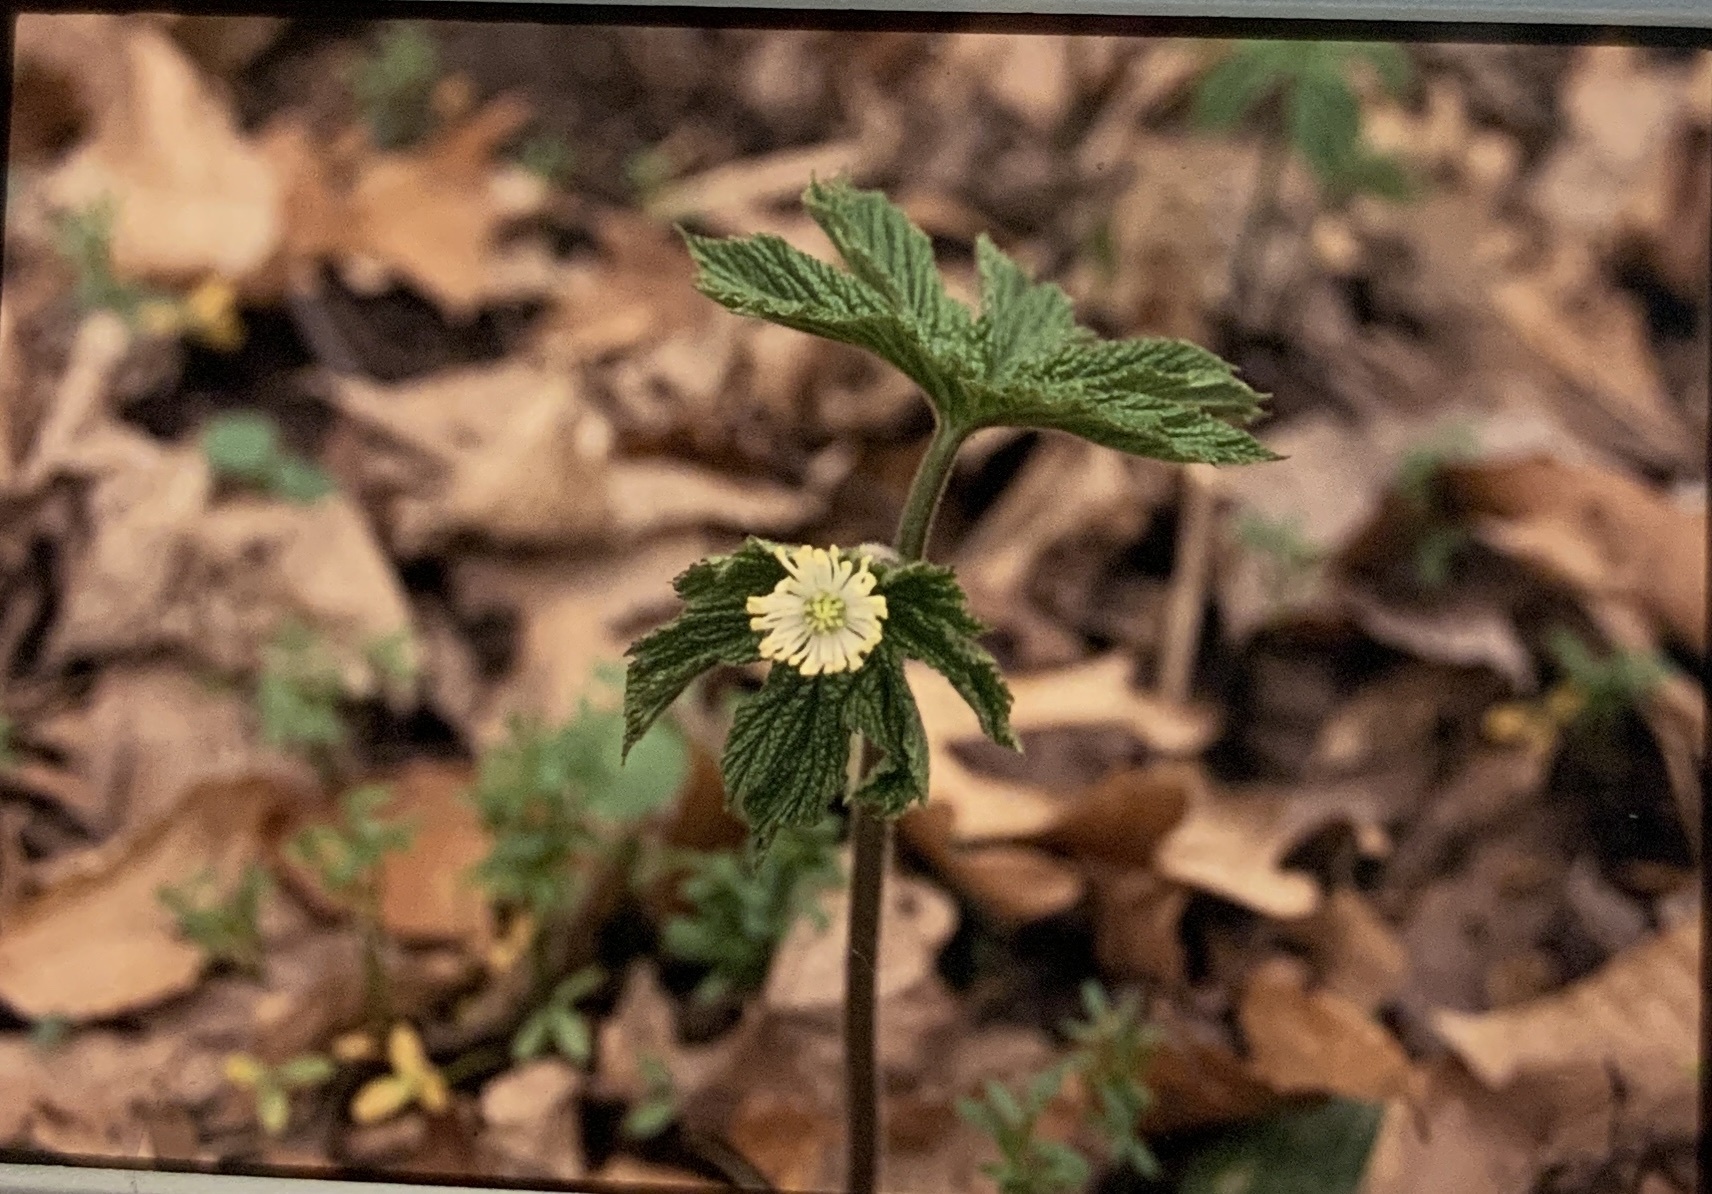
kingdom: Plantae
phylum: Tracheophyta
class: Magnoliopsida
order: Ranunculales
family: Ranunculaceae
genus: Hydrastis
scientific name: Hydrastis canadensis
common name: Goldenseal
